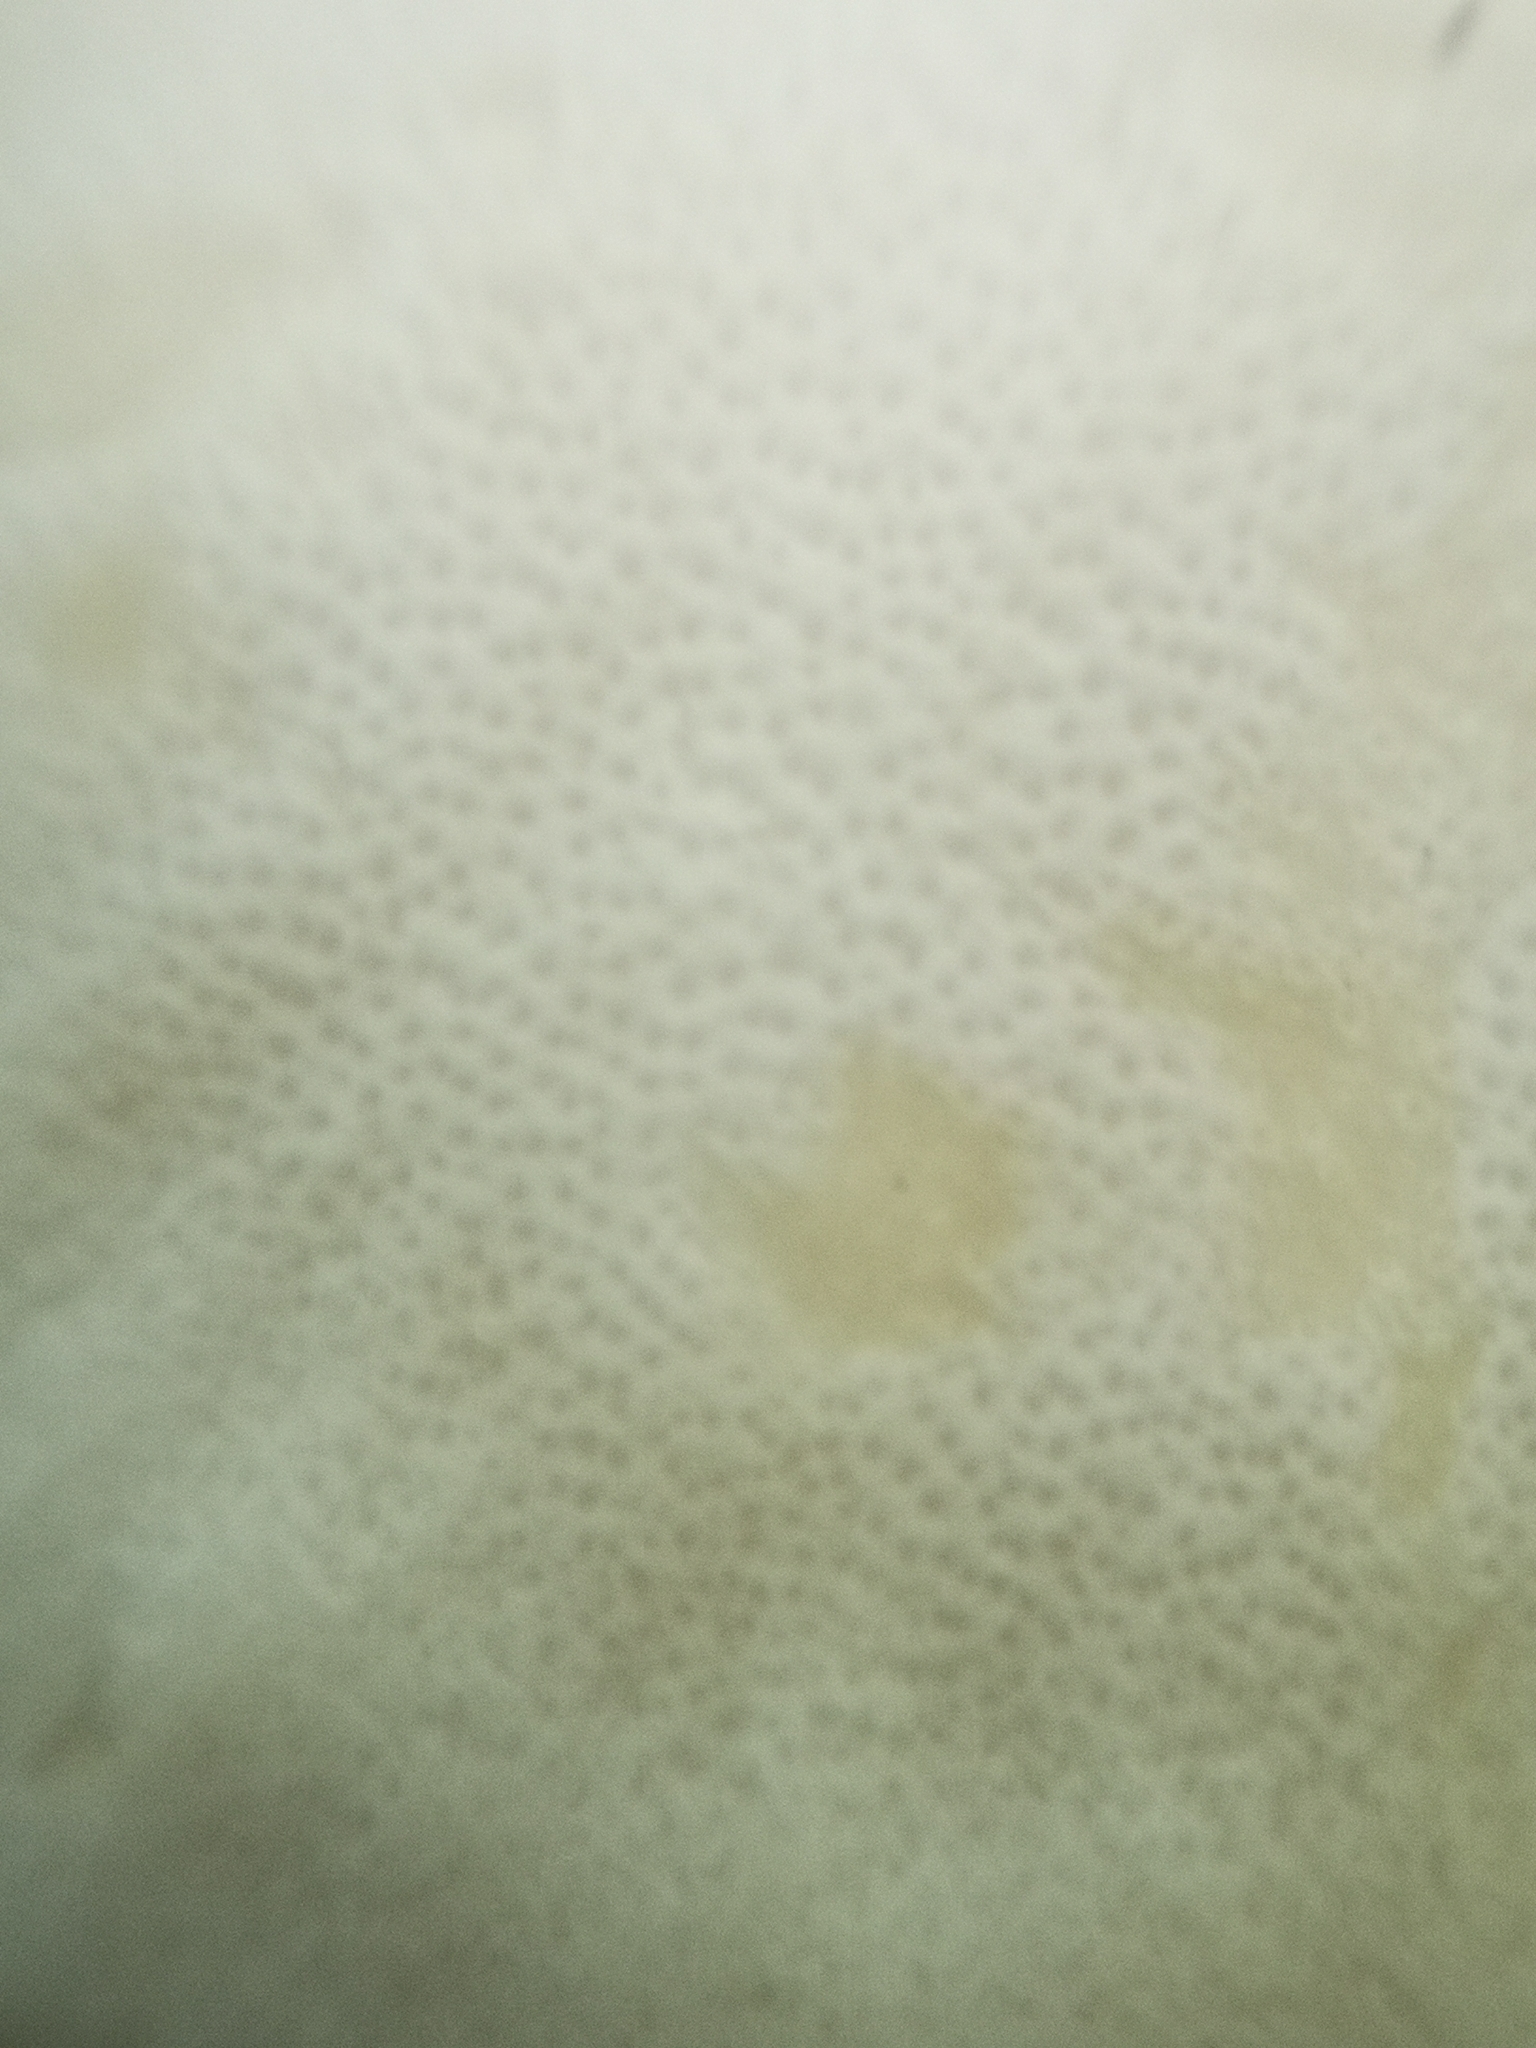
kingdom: Fungi
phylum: Basidiomycota
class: Agaricomycetes
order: Polyporales
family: Grifolaceae
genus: Grifola
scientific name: Grifola frondosa
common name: Hen of the woods
